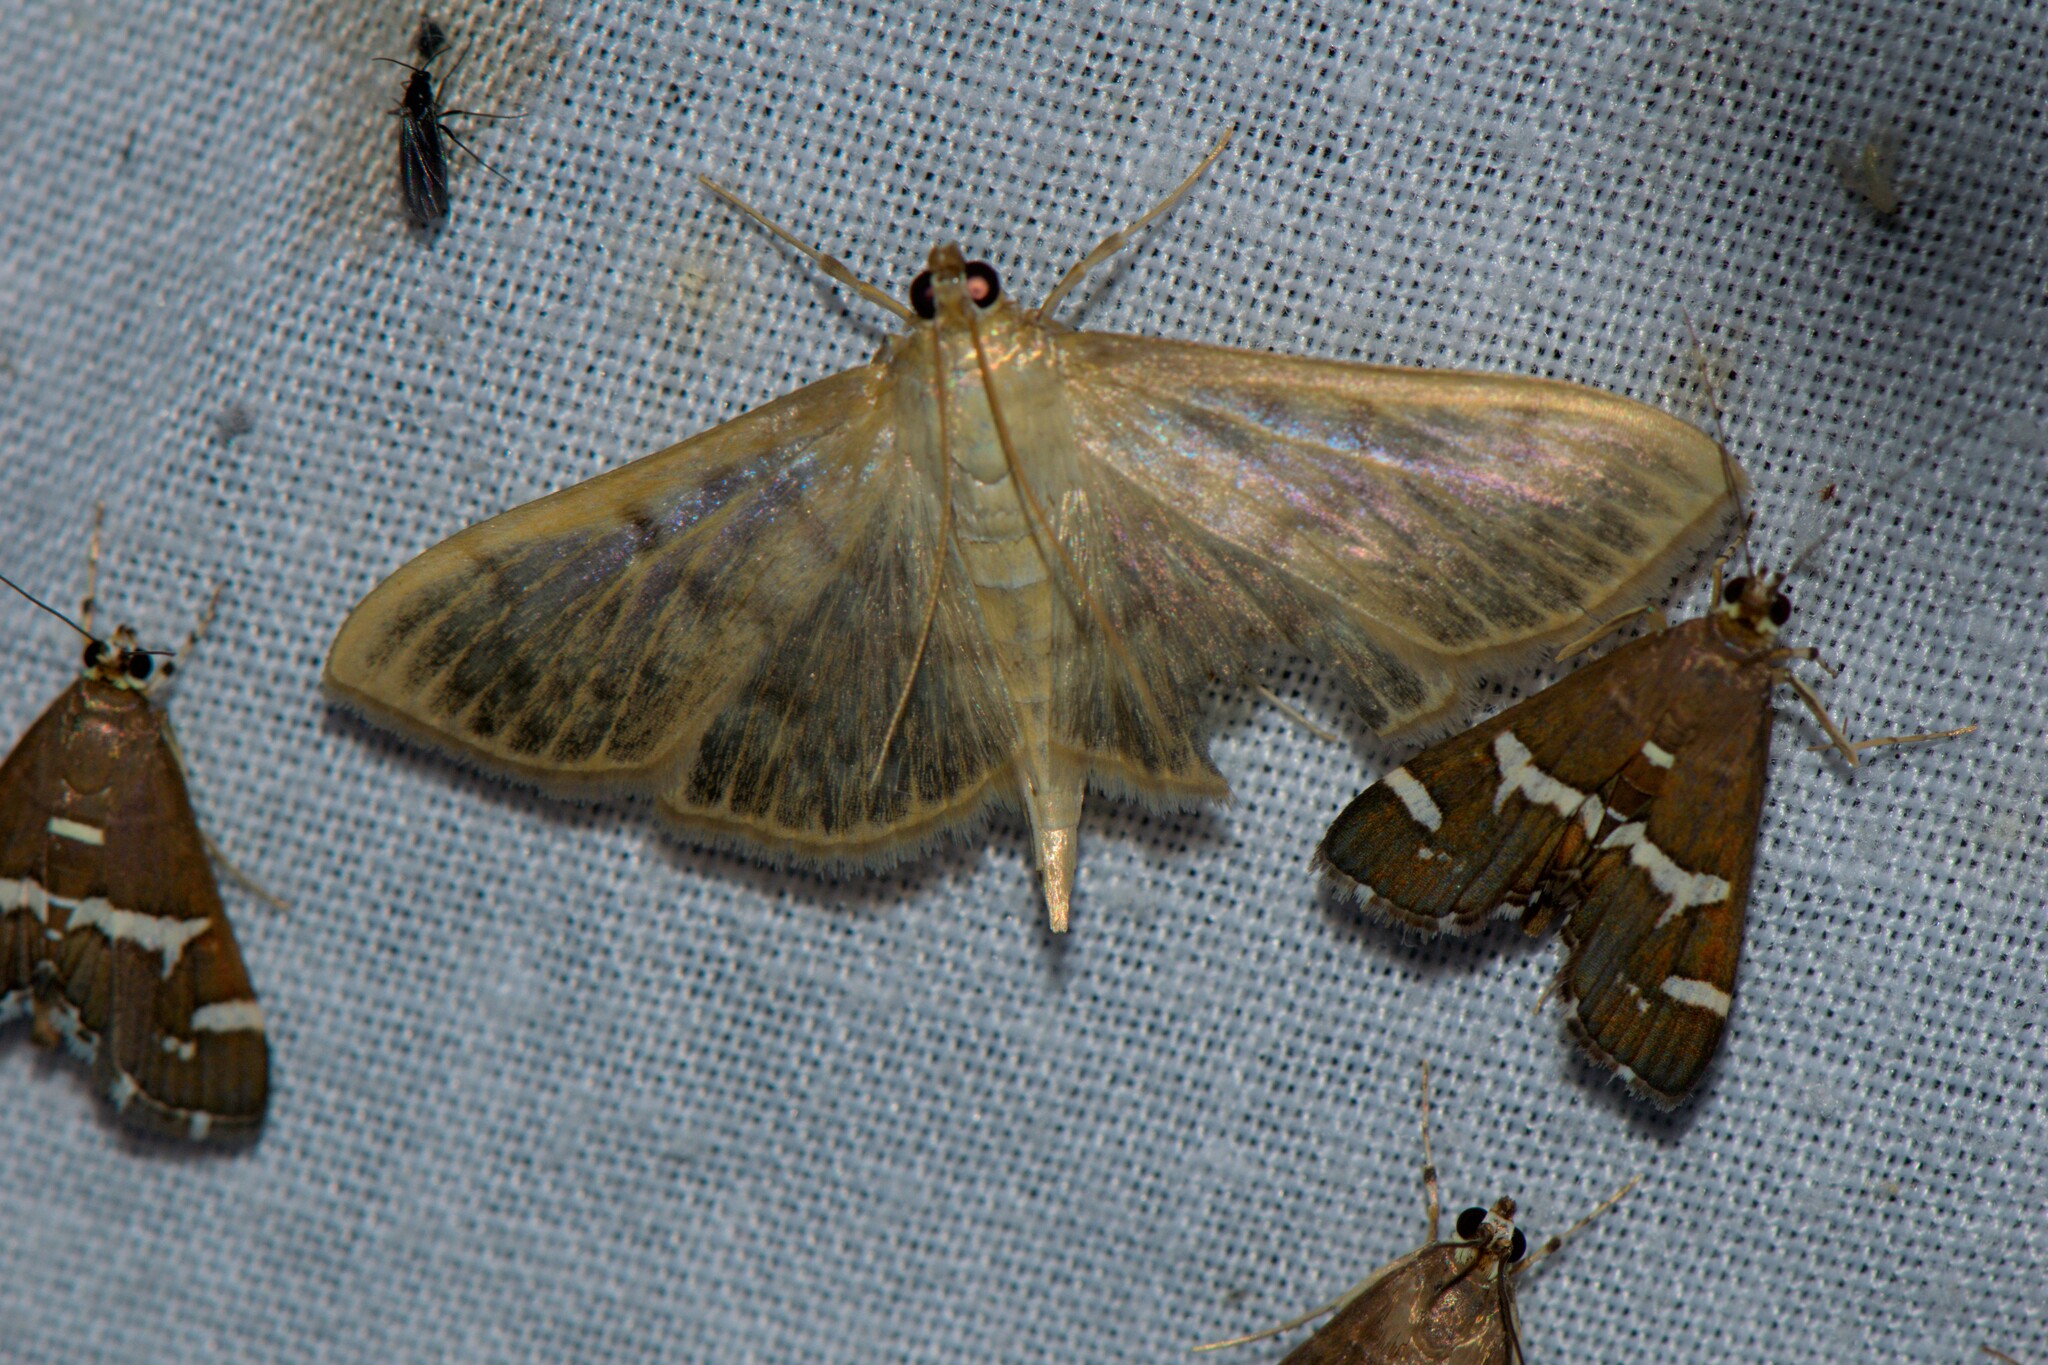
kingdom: Animalia
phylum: Arthropoda
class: Insecta
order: Lepidoptera
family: Crambidae
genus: Spoladea
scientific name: Spoladea recurvalis
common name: Beet webworm moth
